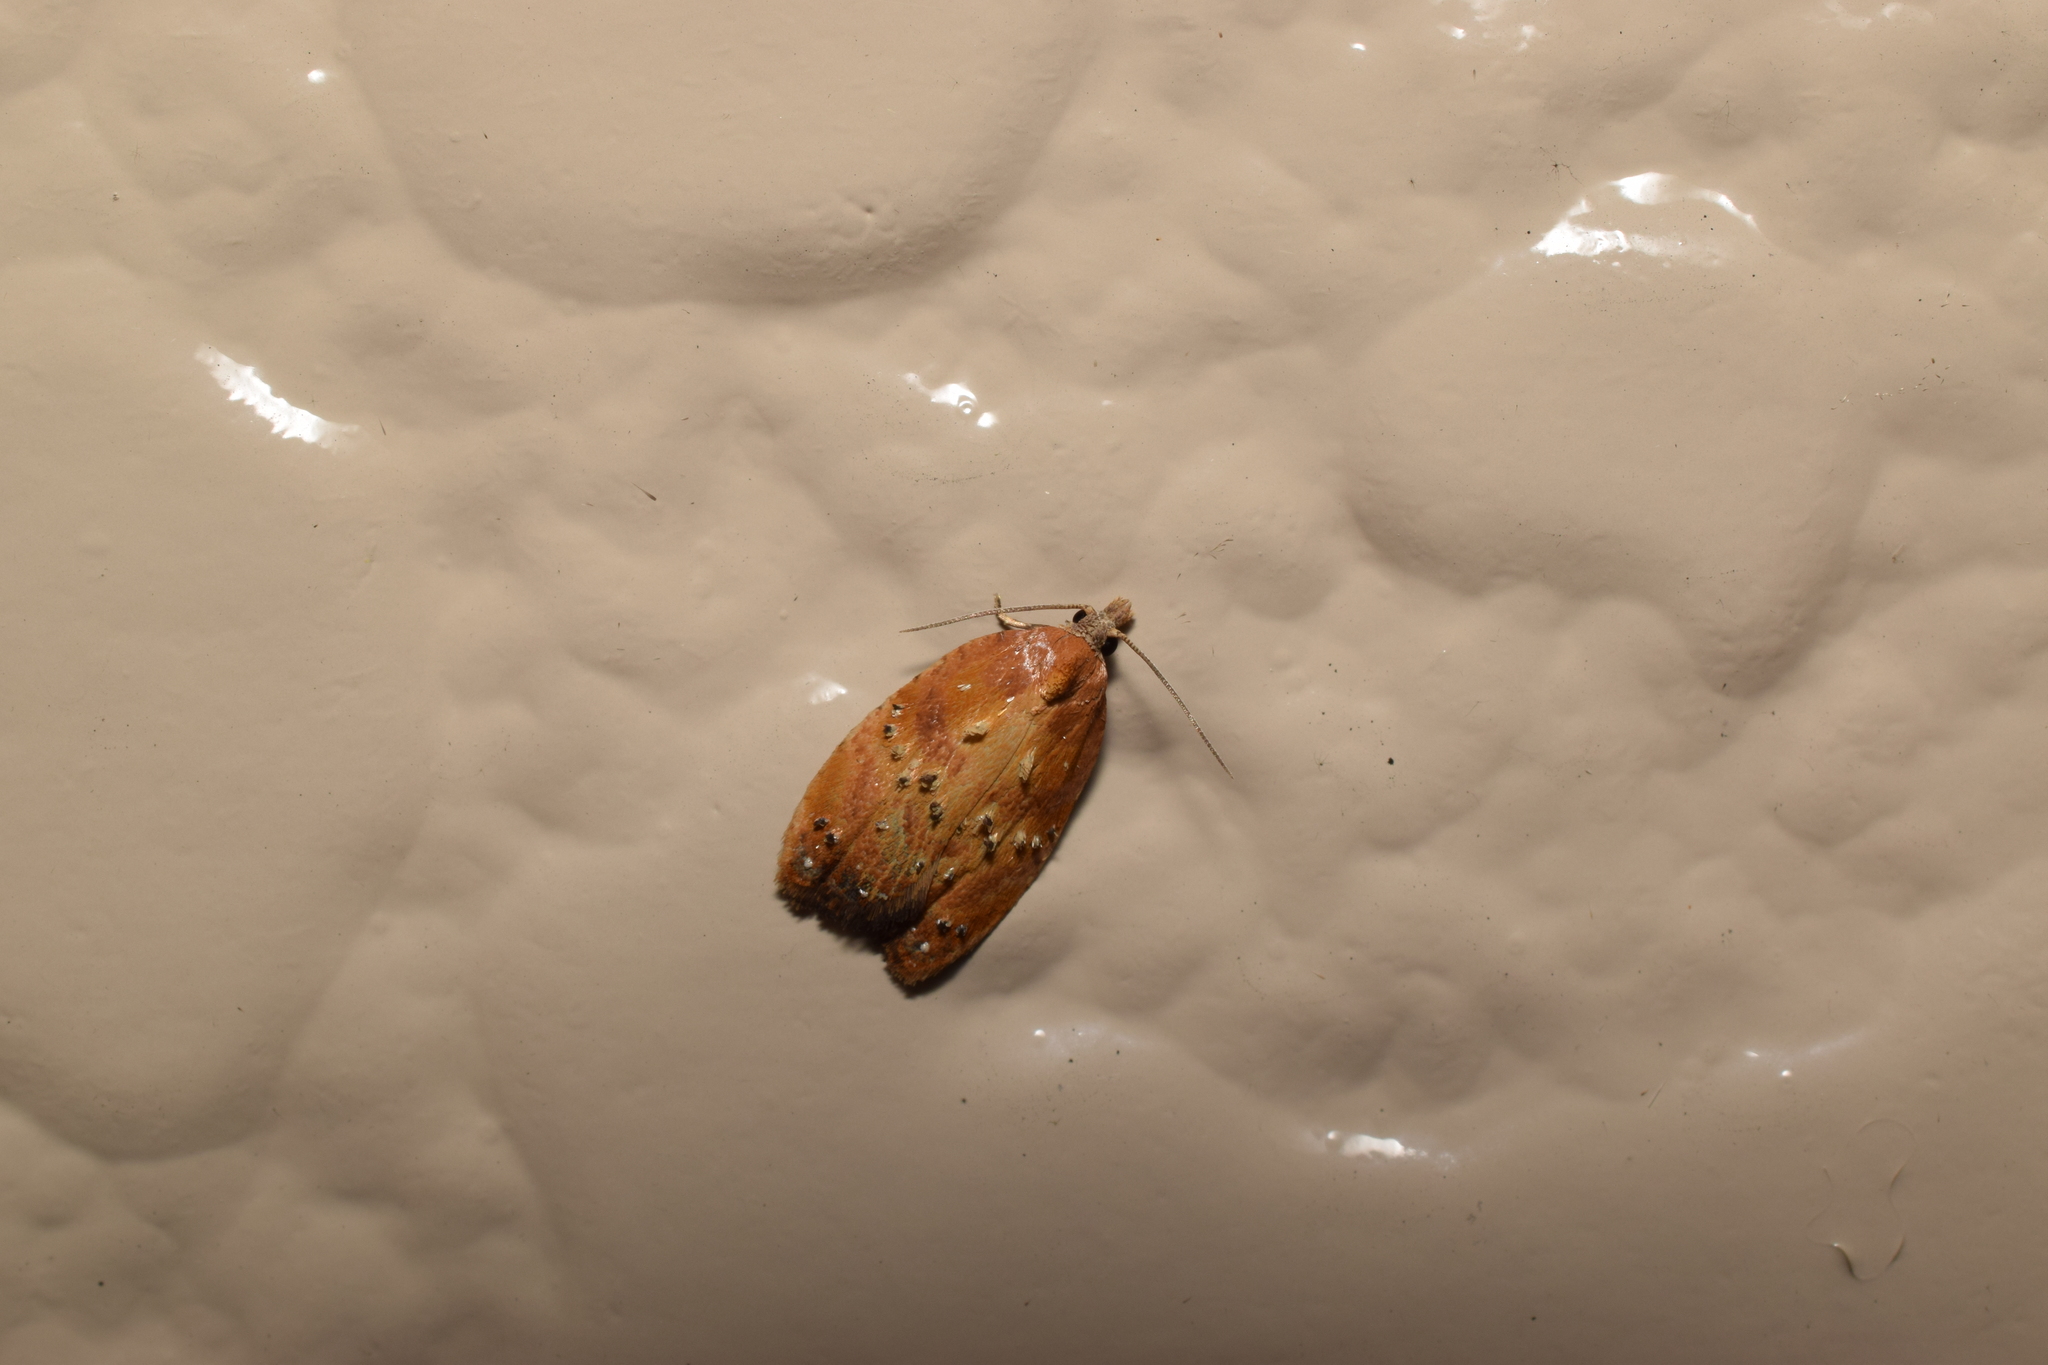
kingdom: Animalia
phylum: Arthropoda
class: Insecta
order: Lepidoptera
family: Tortricidae
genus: Acleris
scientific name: Acleris enitescens
